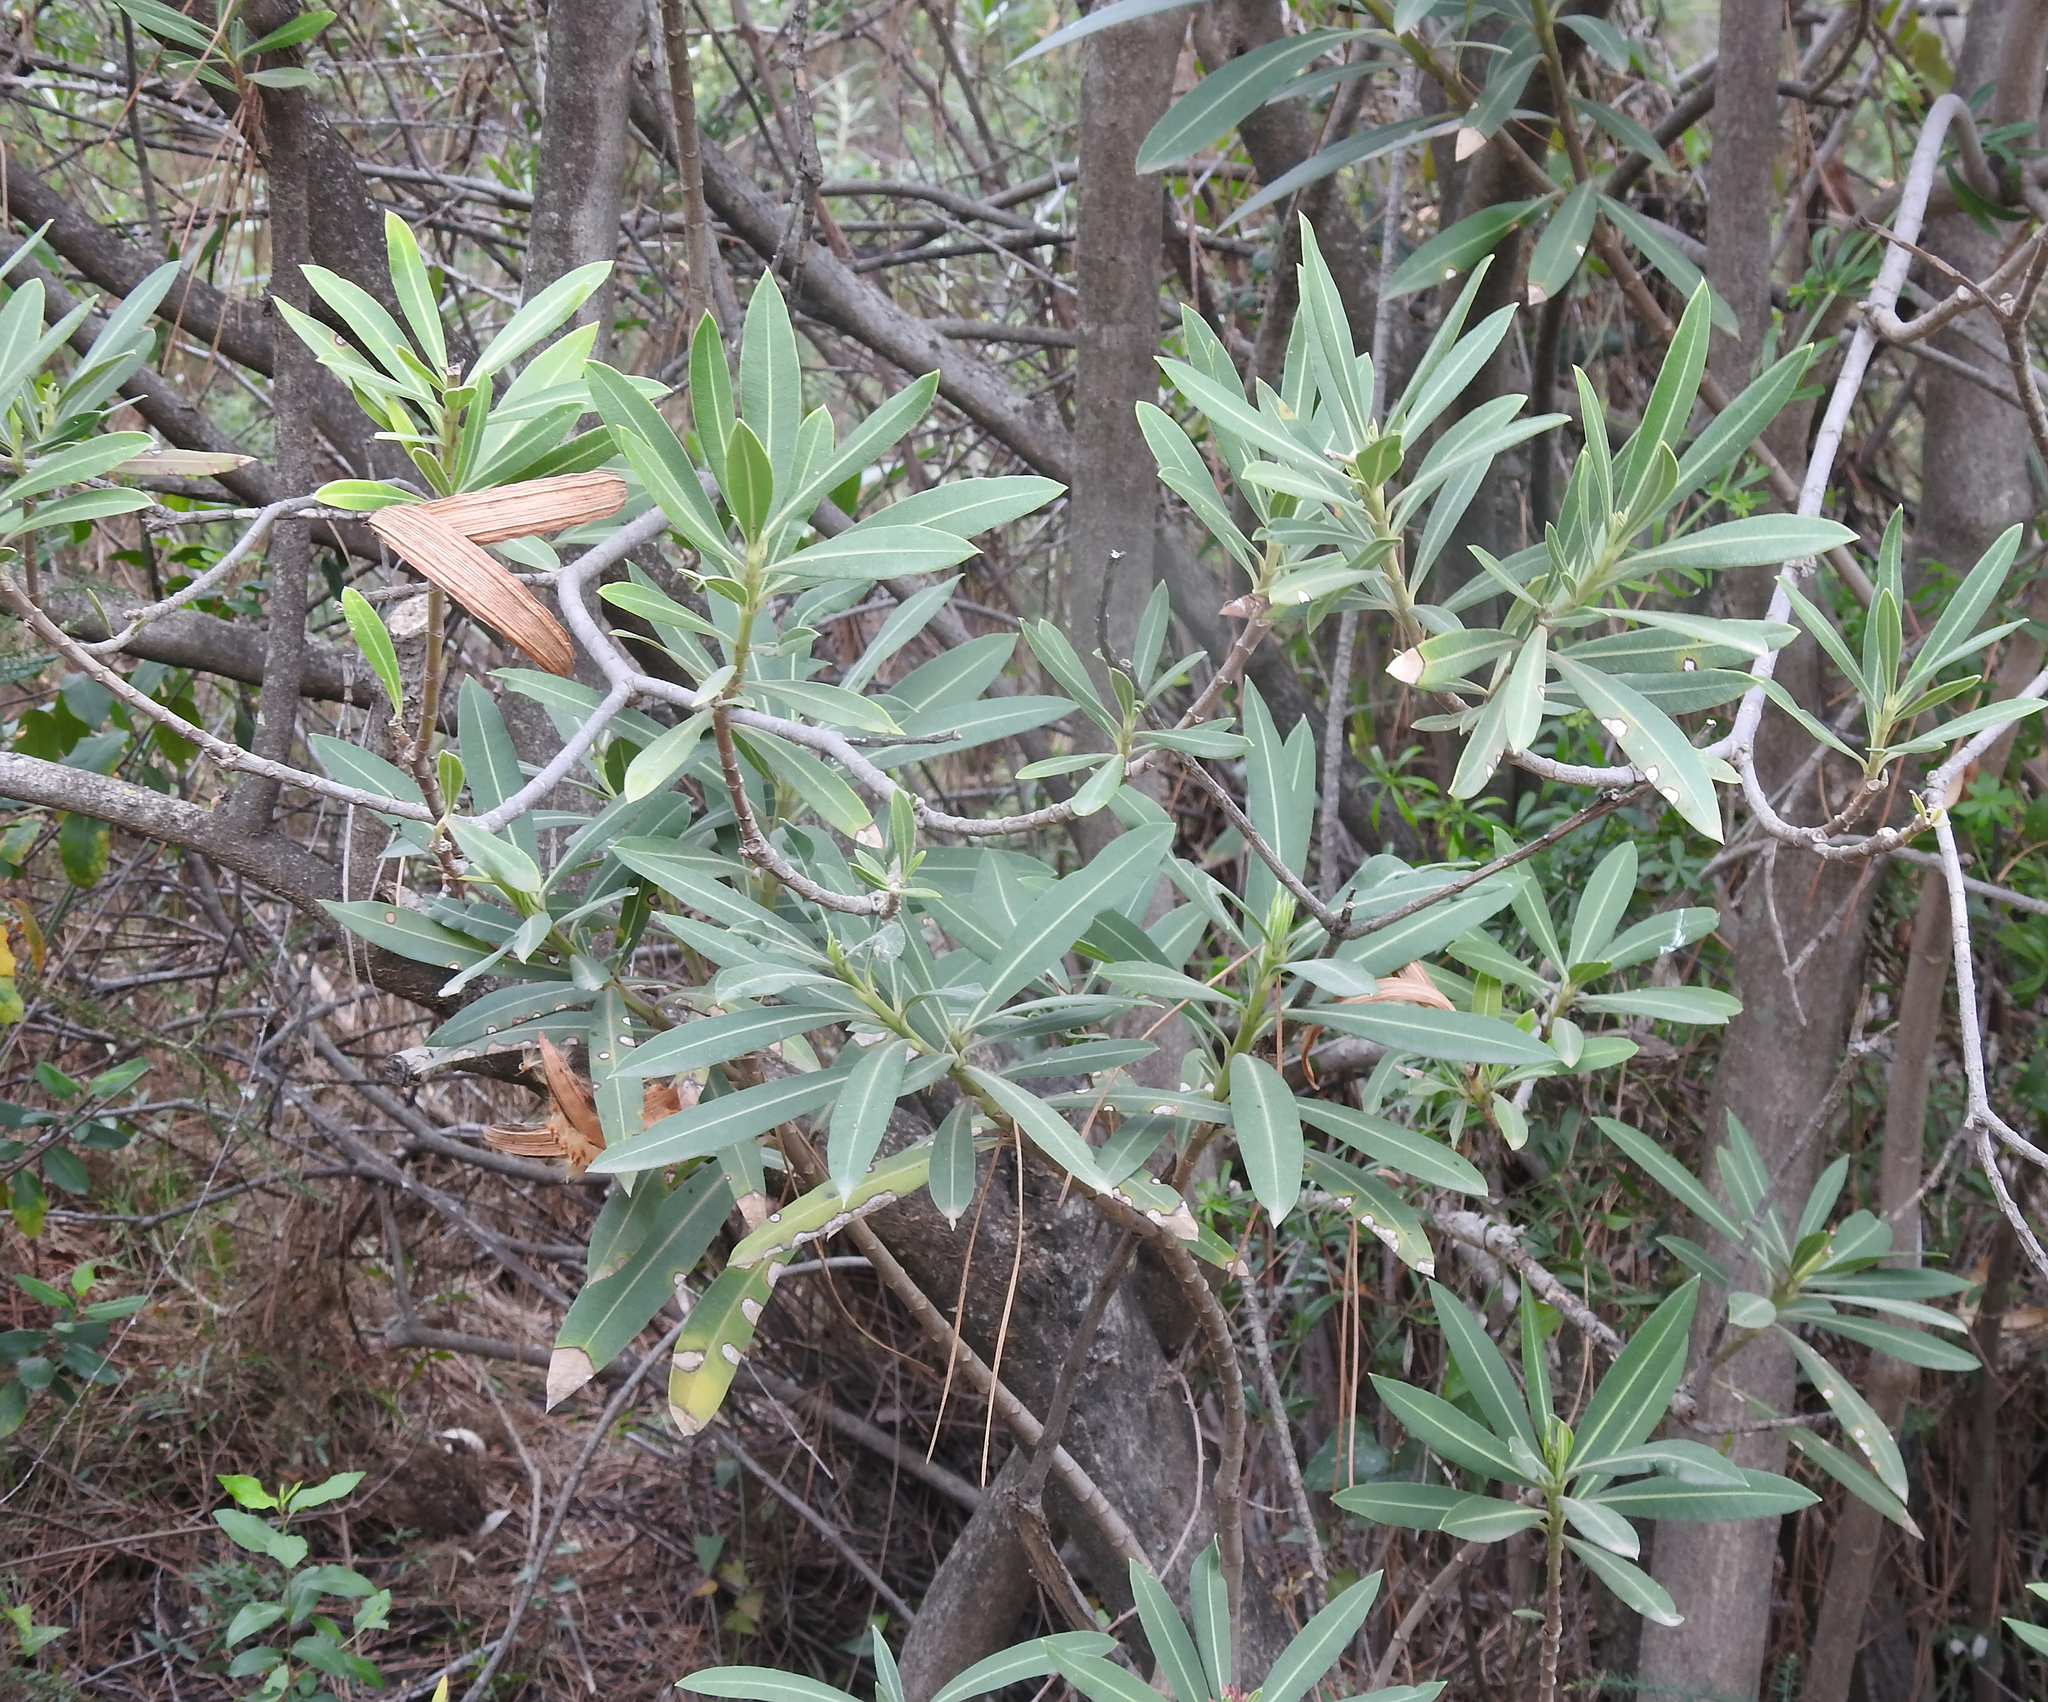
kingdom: Plantae
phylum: Tracheophyta
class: Magnoliopsida
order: Gentianales
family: Apocynaceae
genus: Nerium
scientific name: Nerium oleander
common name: Oleander
